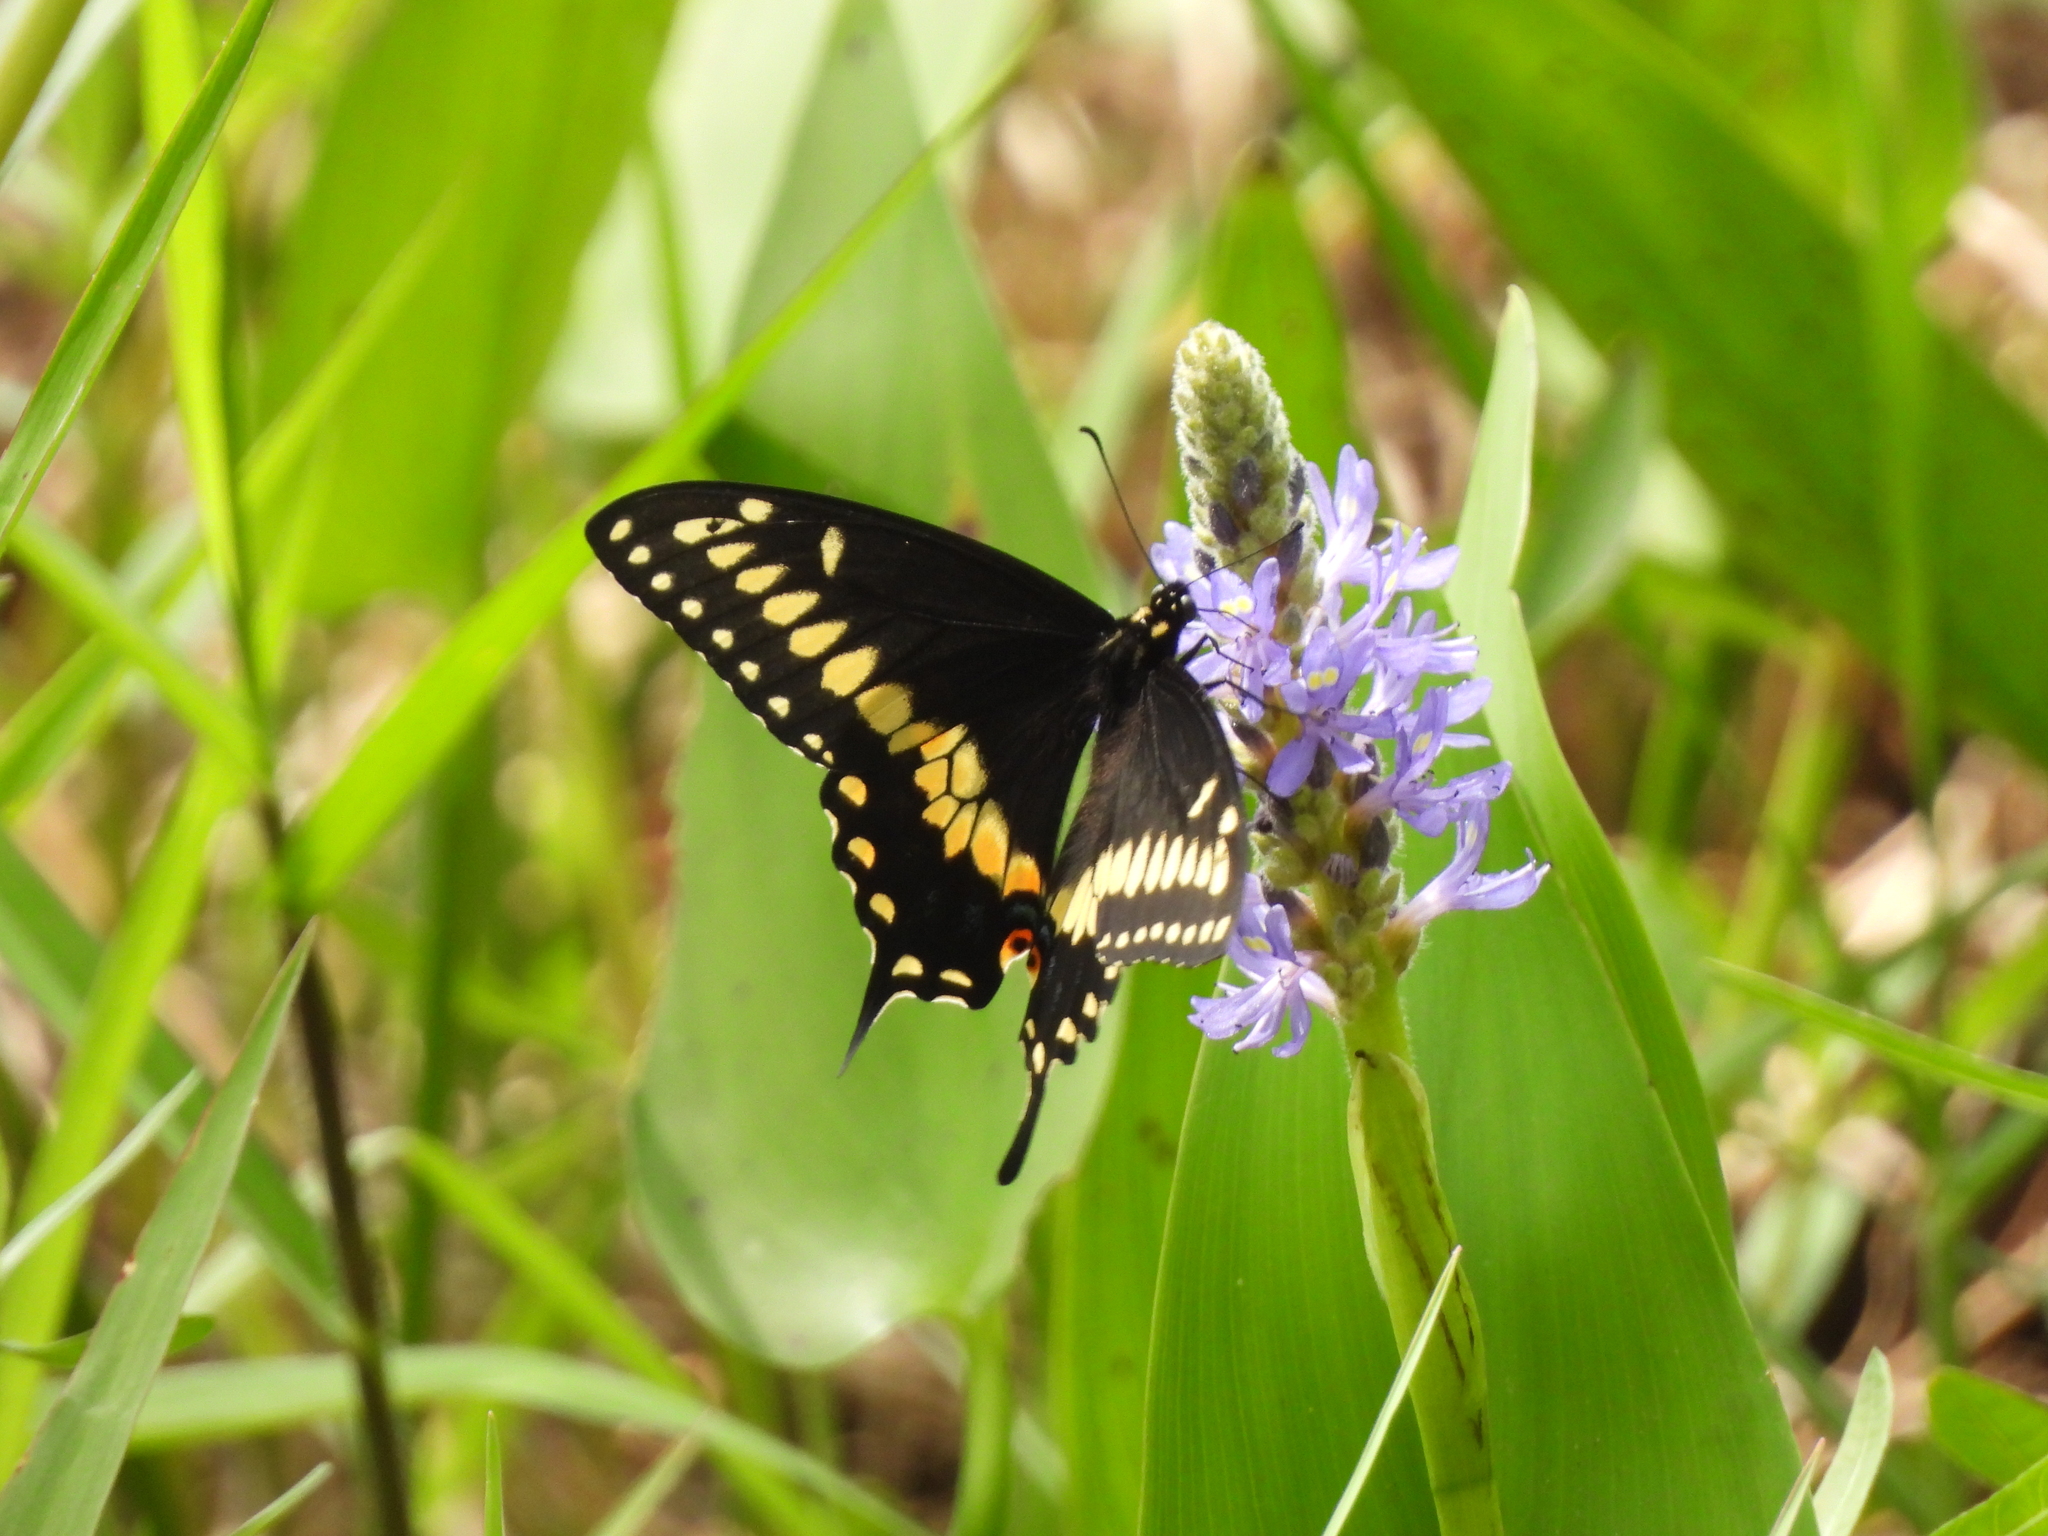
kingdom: Plantae
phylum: Tracheophyta
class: Liliopsida
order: Commelinales
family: Pontederiaceae
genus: Pontederia
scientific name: Pontederia cordata
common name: Pickerelweed
